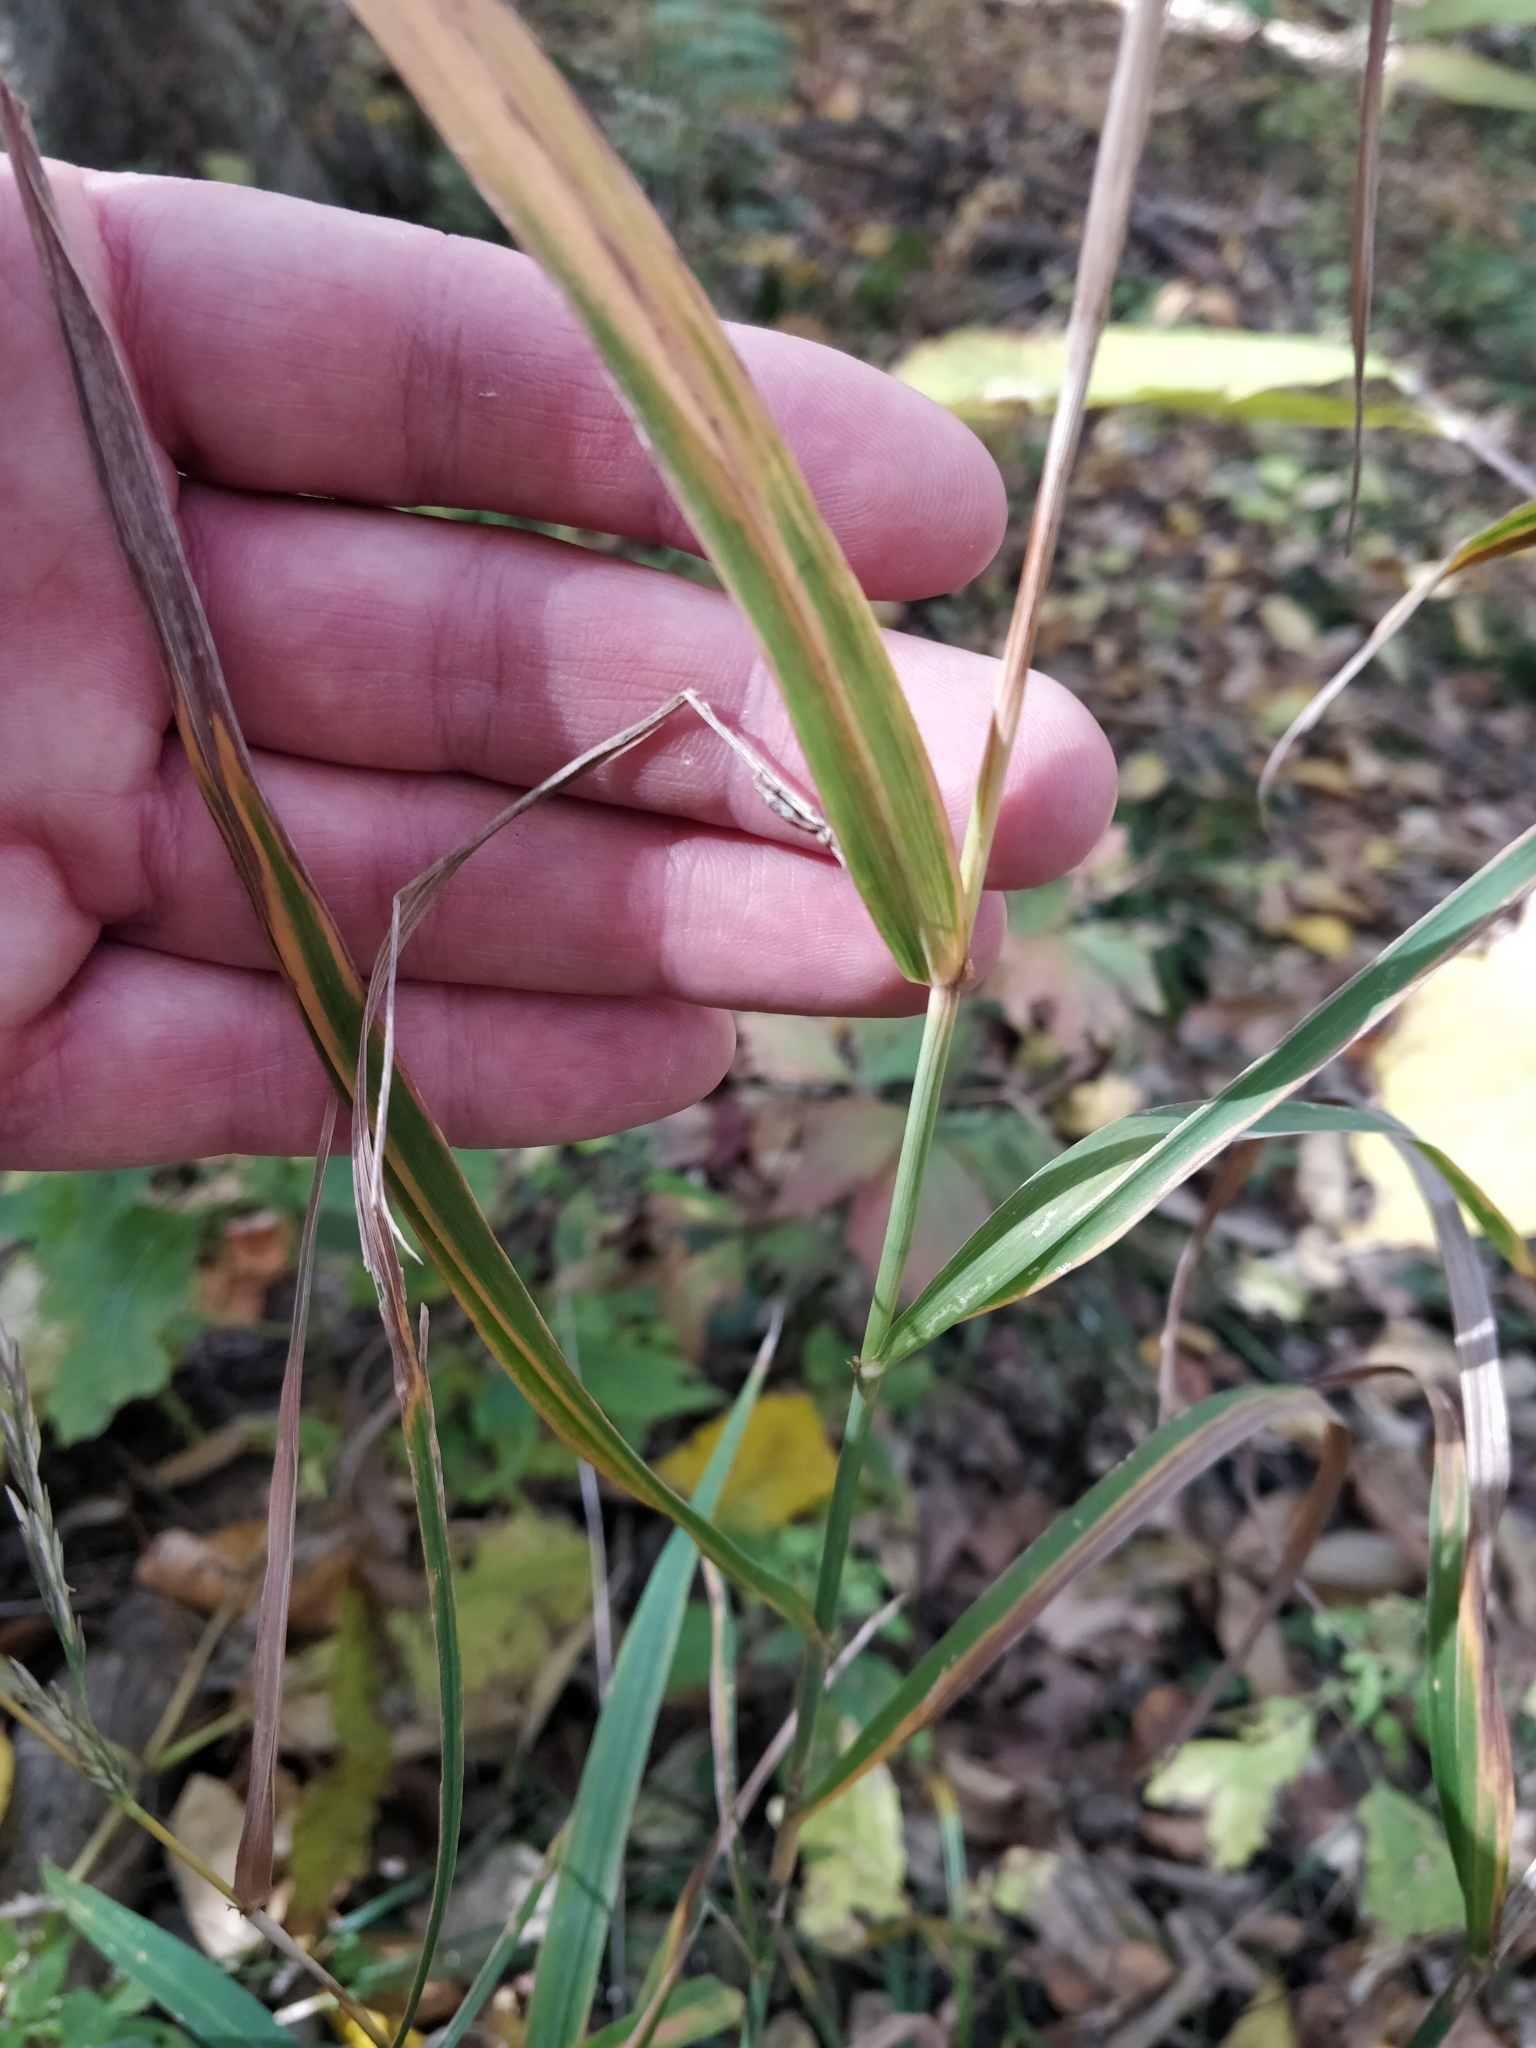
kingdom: Plantae
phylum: Tracheophyta
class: Liliopsida
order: Poales
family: Poaceae
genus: Cinna
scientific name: Cinna arundinacea
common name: Stout woodreed
